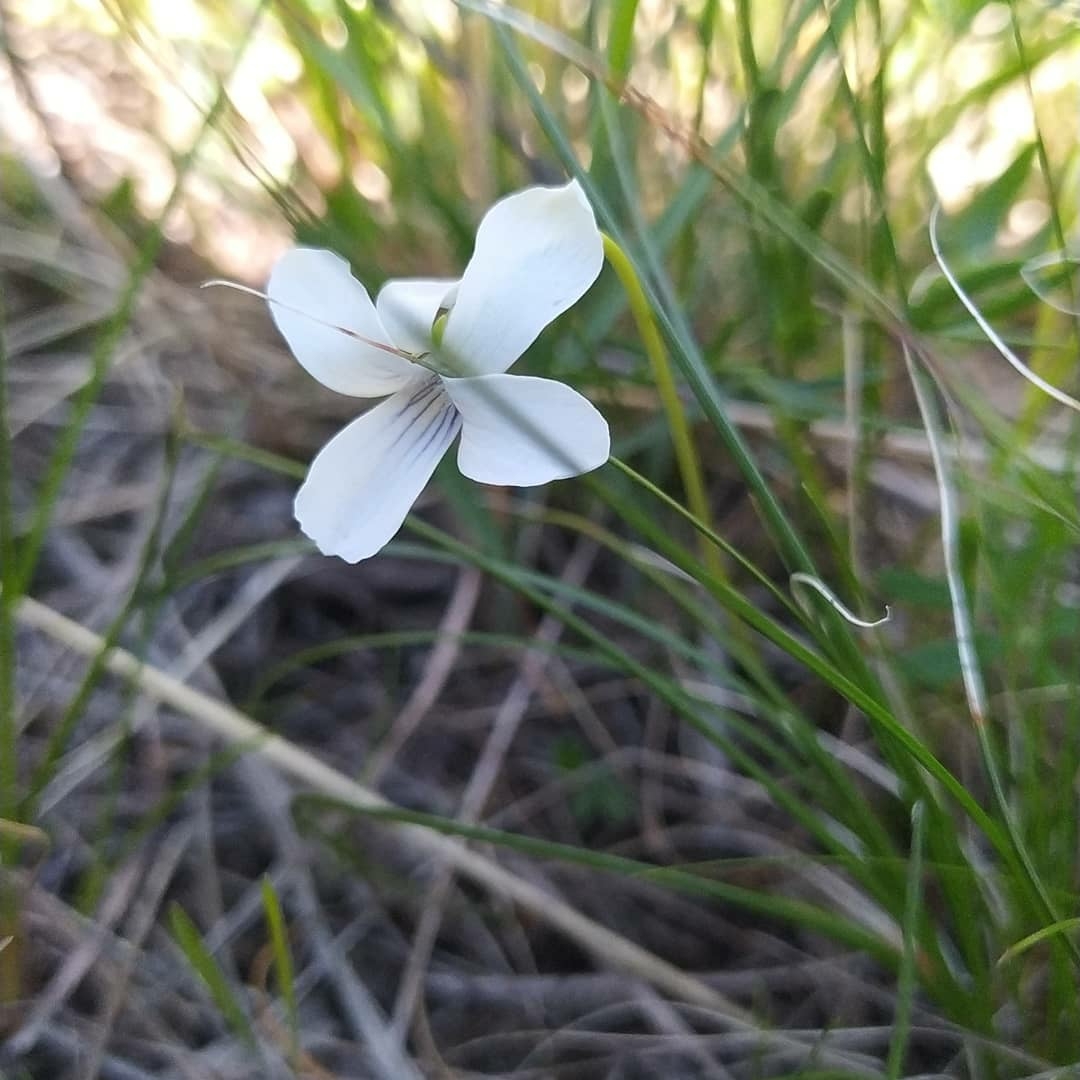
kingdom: Plantae
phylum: Tracheophyta
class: Magnoliopsida
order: Malpighiales
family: Violaceae
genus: Viola
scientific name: Viola patrinii
